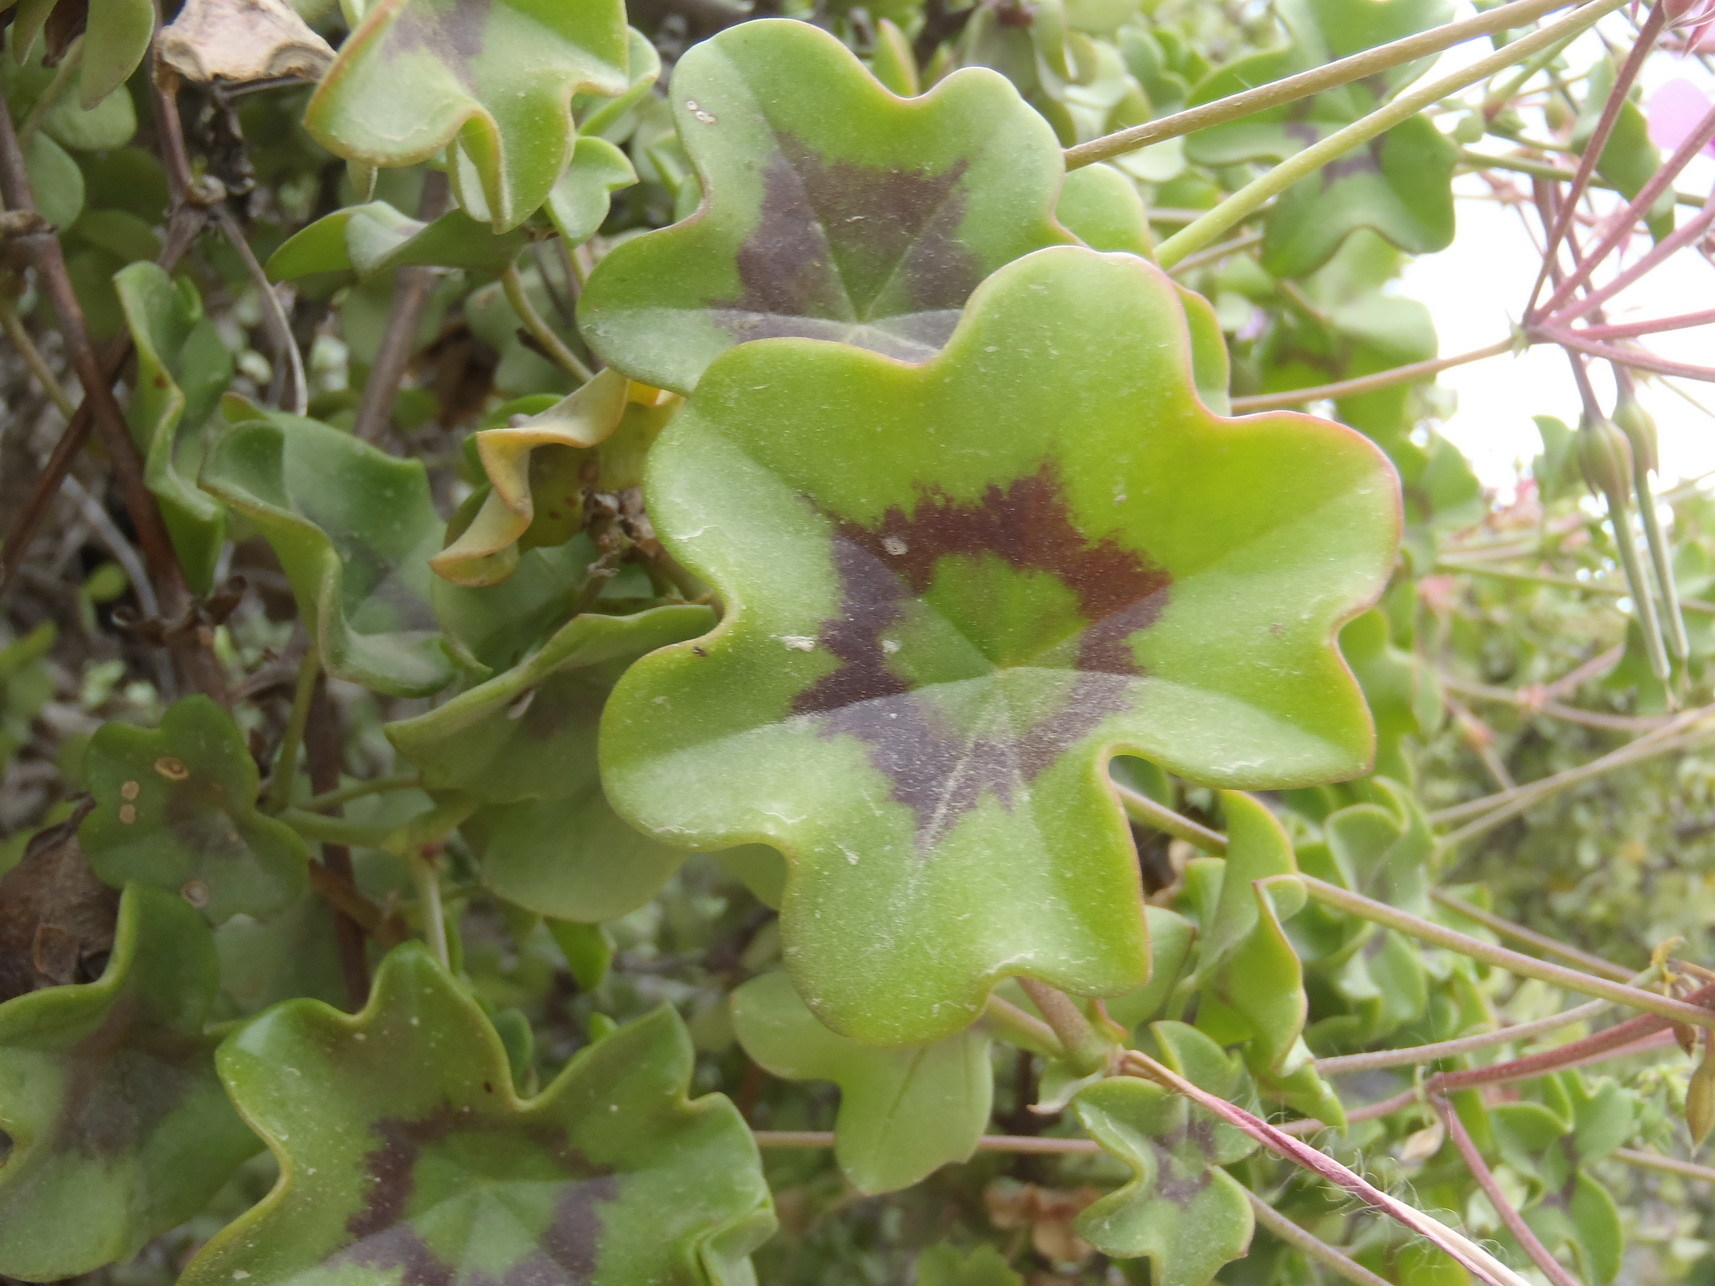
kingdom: Plantae
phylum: Tracheophyta
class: Magnoliopsida
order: Geraniales
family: Geraniaceae
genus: Pelargonium
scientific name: Pelargonium peltatum
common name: Ivyleaf geranium
